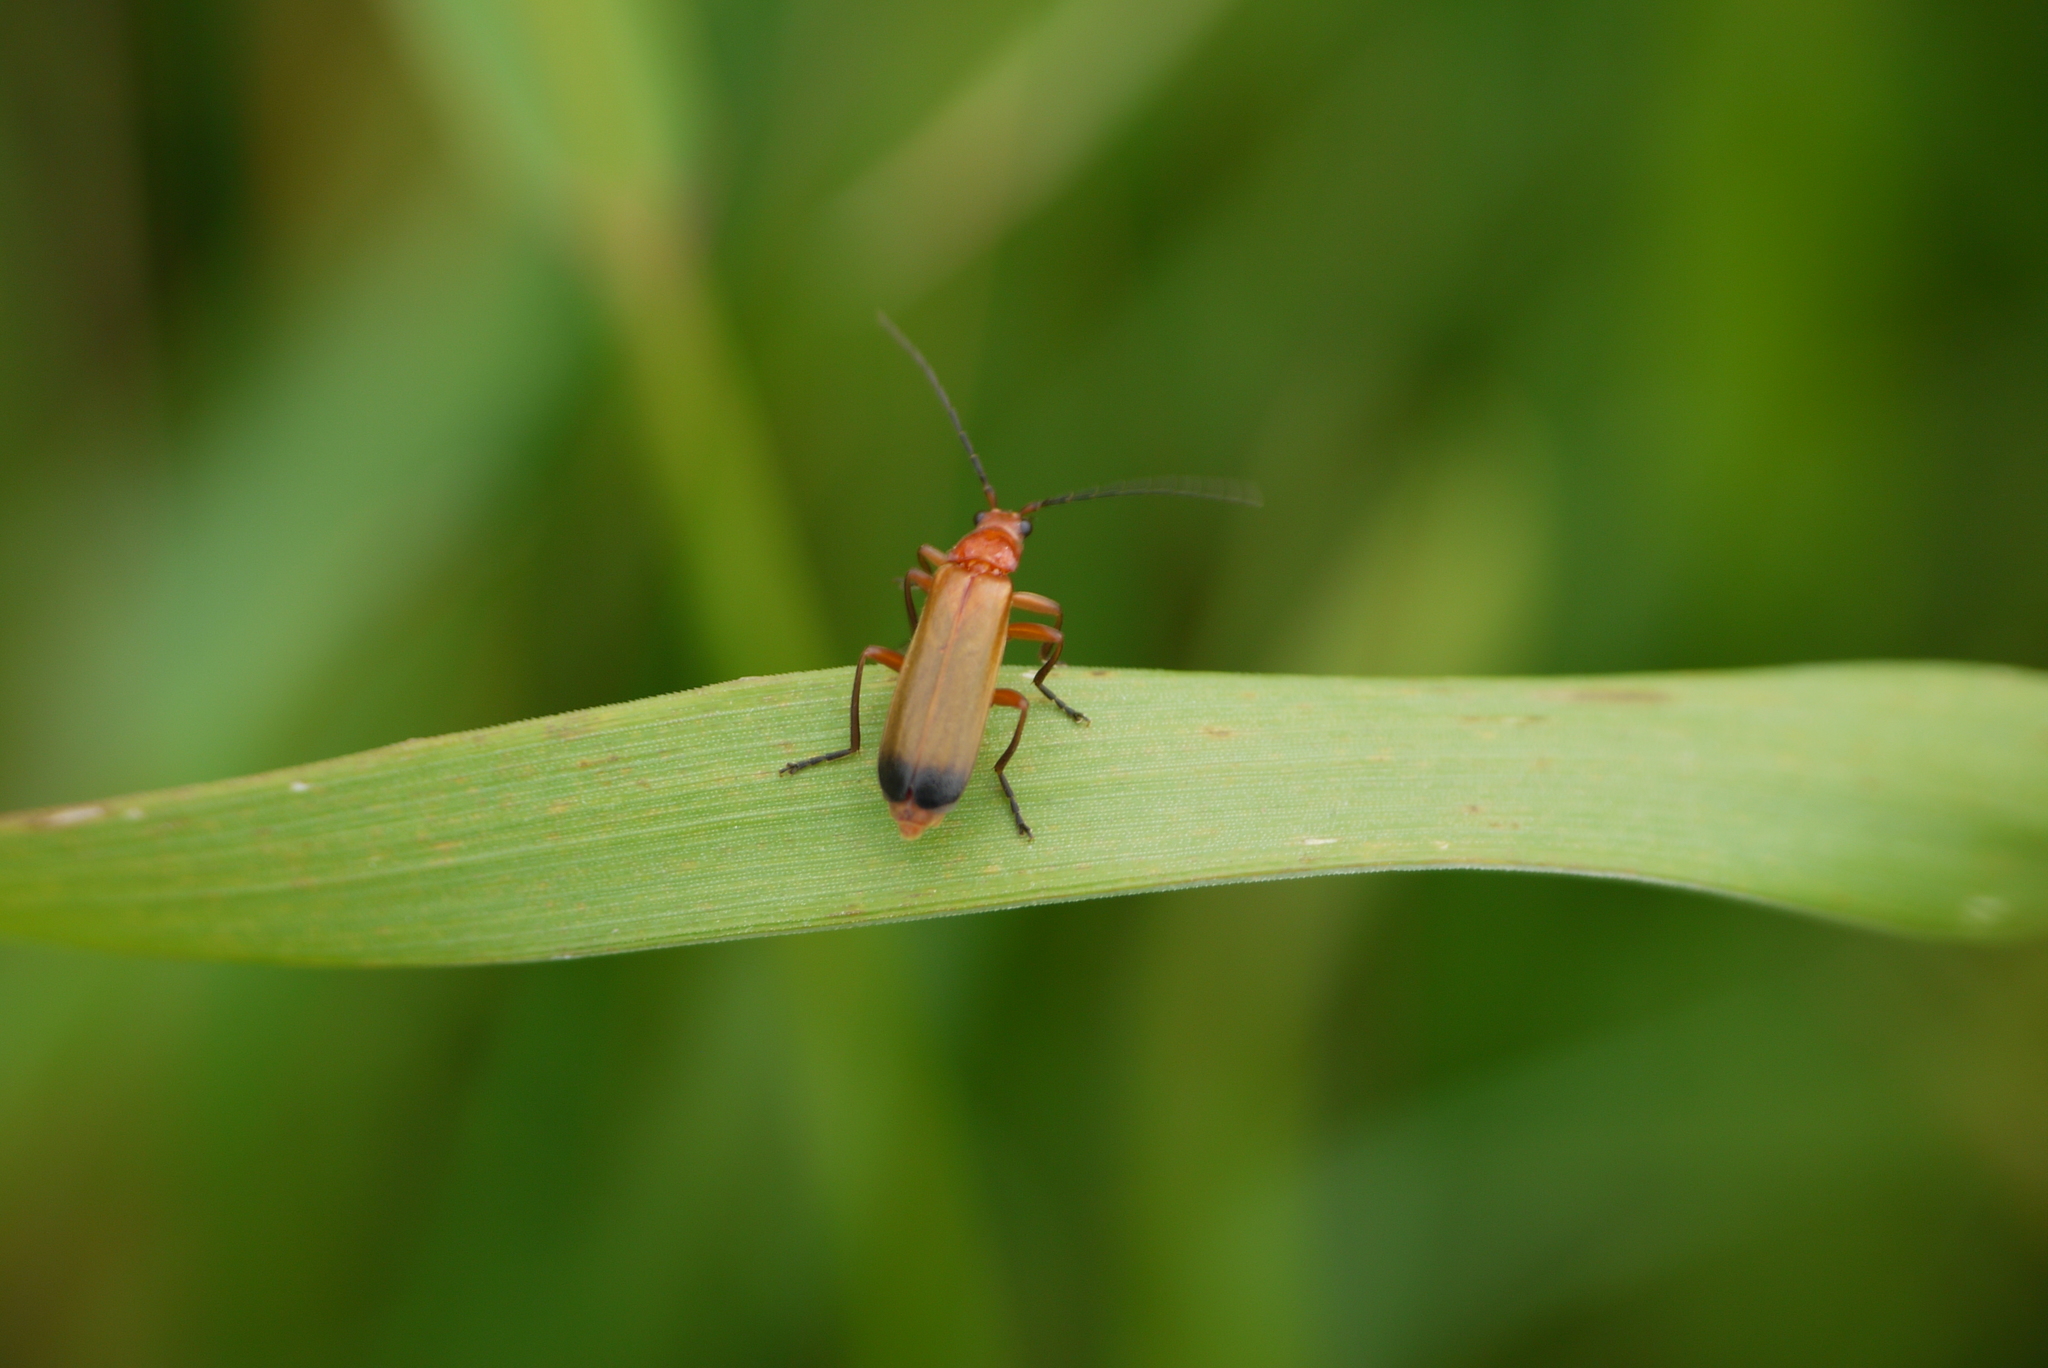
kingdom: Animalia
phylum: Arthropoda
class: Insecta
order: Coleoptera
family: Cantharidae
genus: Rhagonycha
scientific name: Rhagonycha fulva
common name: Common red soldier beetle
